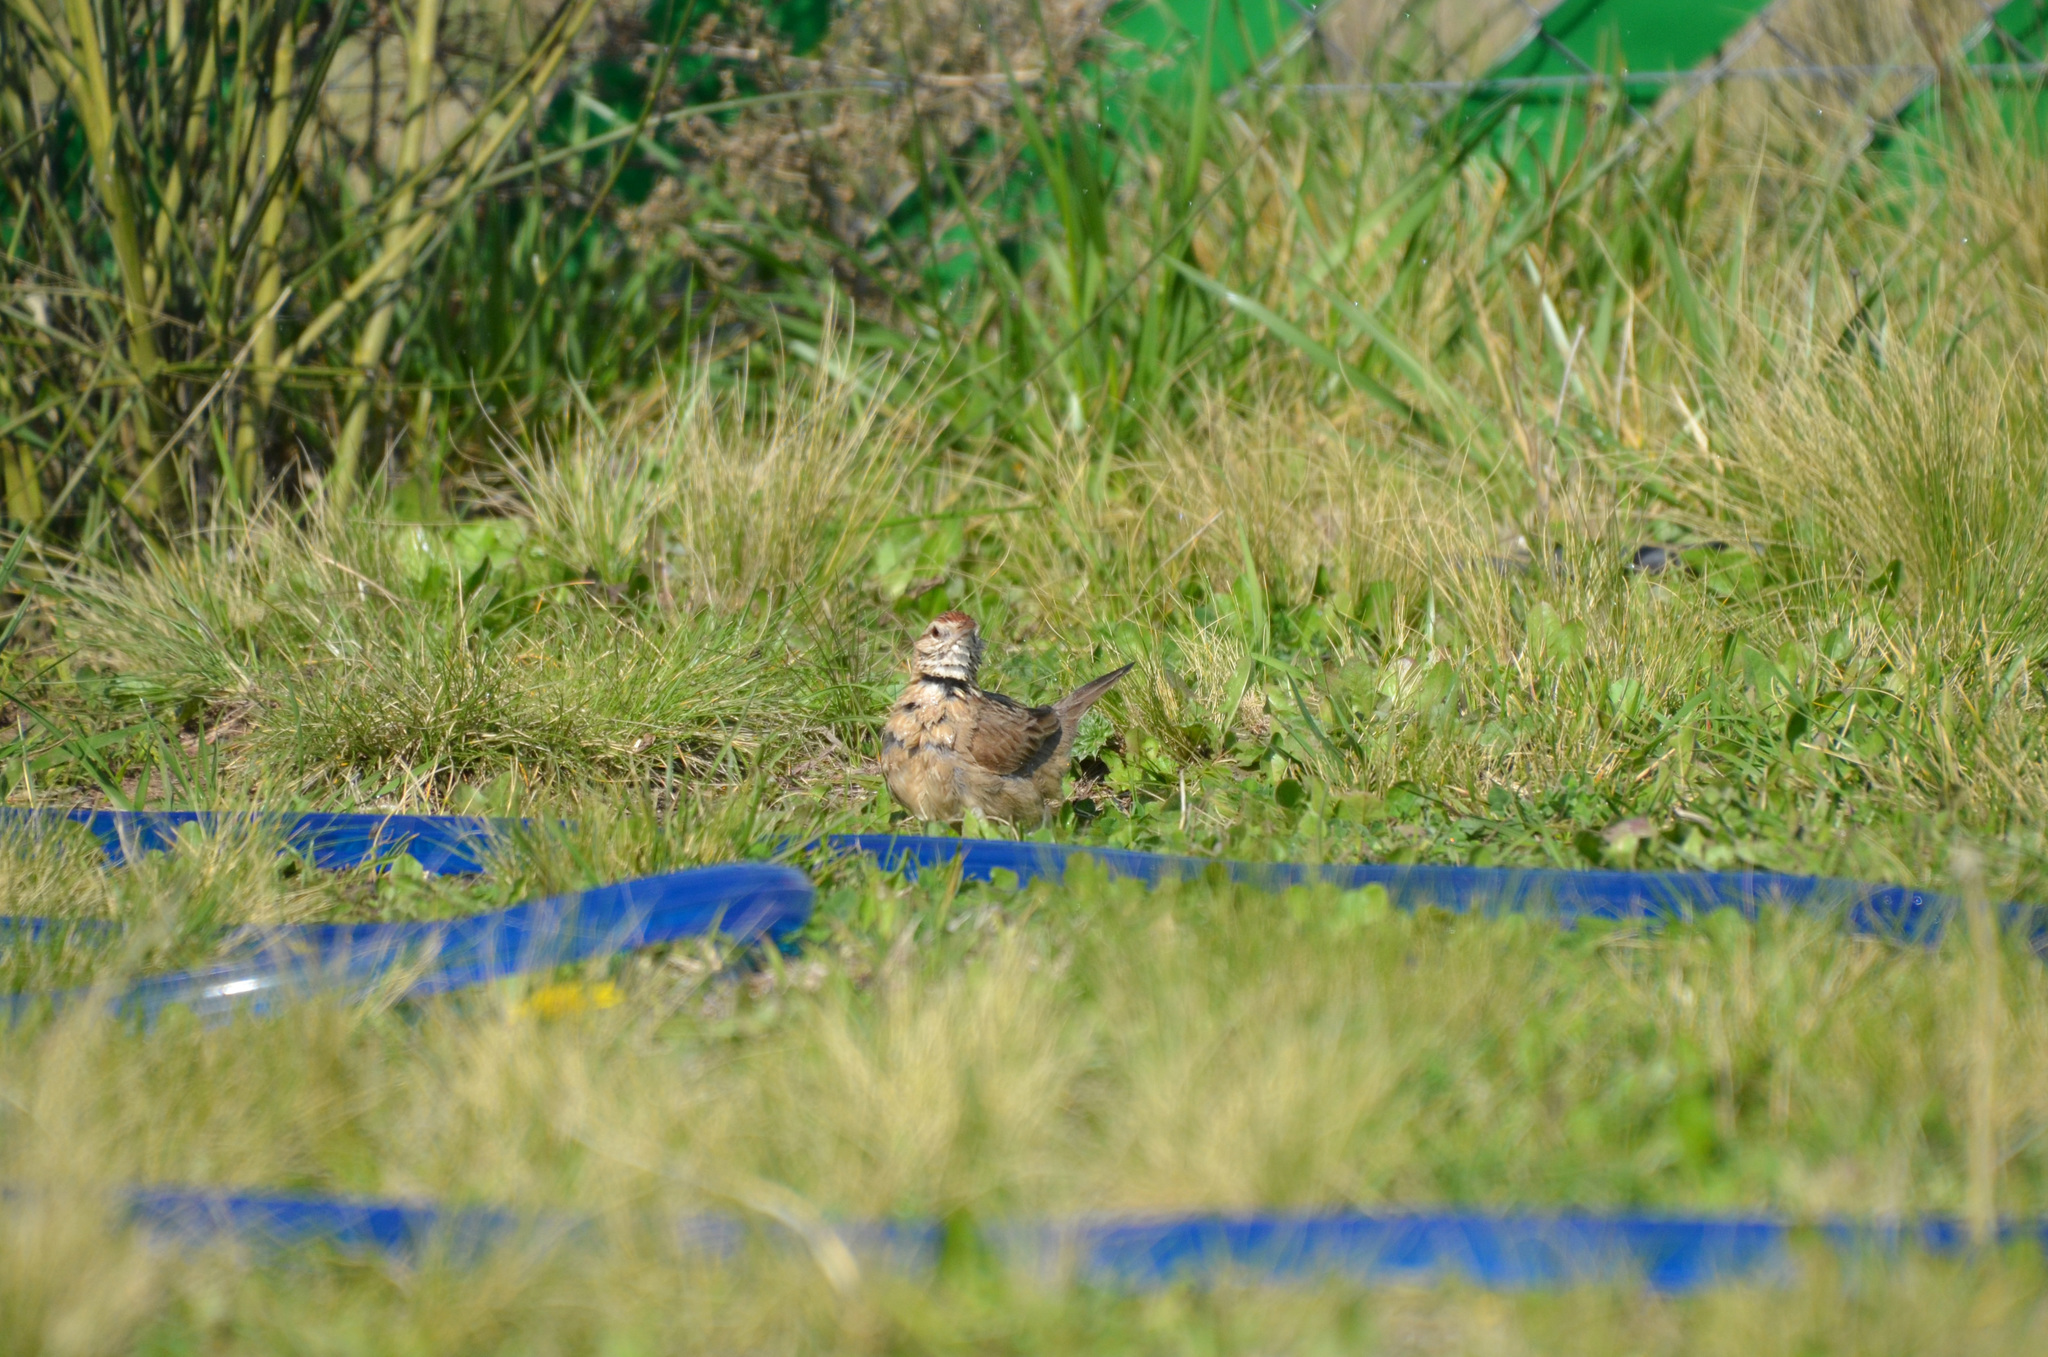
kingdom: Animalia
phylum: Chordata
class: Aves
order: Passeriformes
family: Furnariidae
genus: Anumbius
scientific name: Anumbius annumbi
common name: Firewood-gatherer
